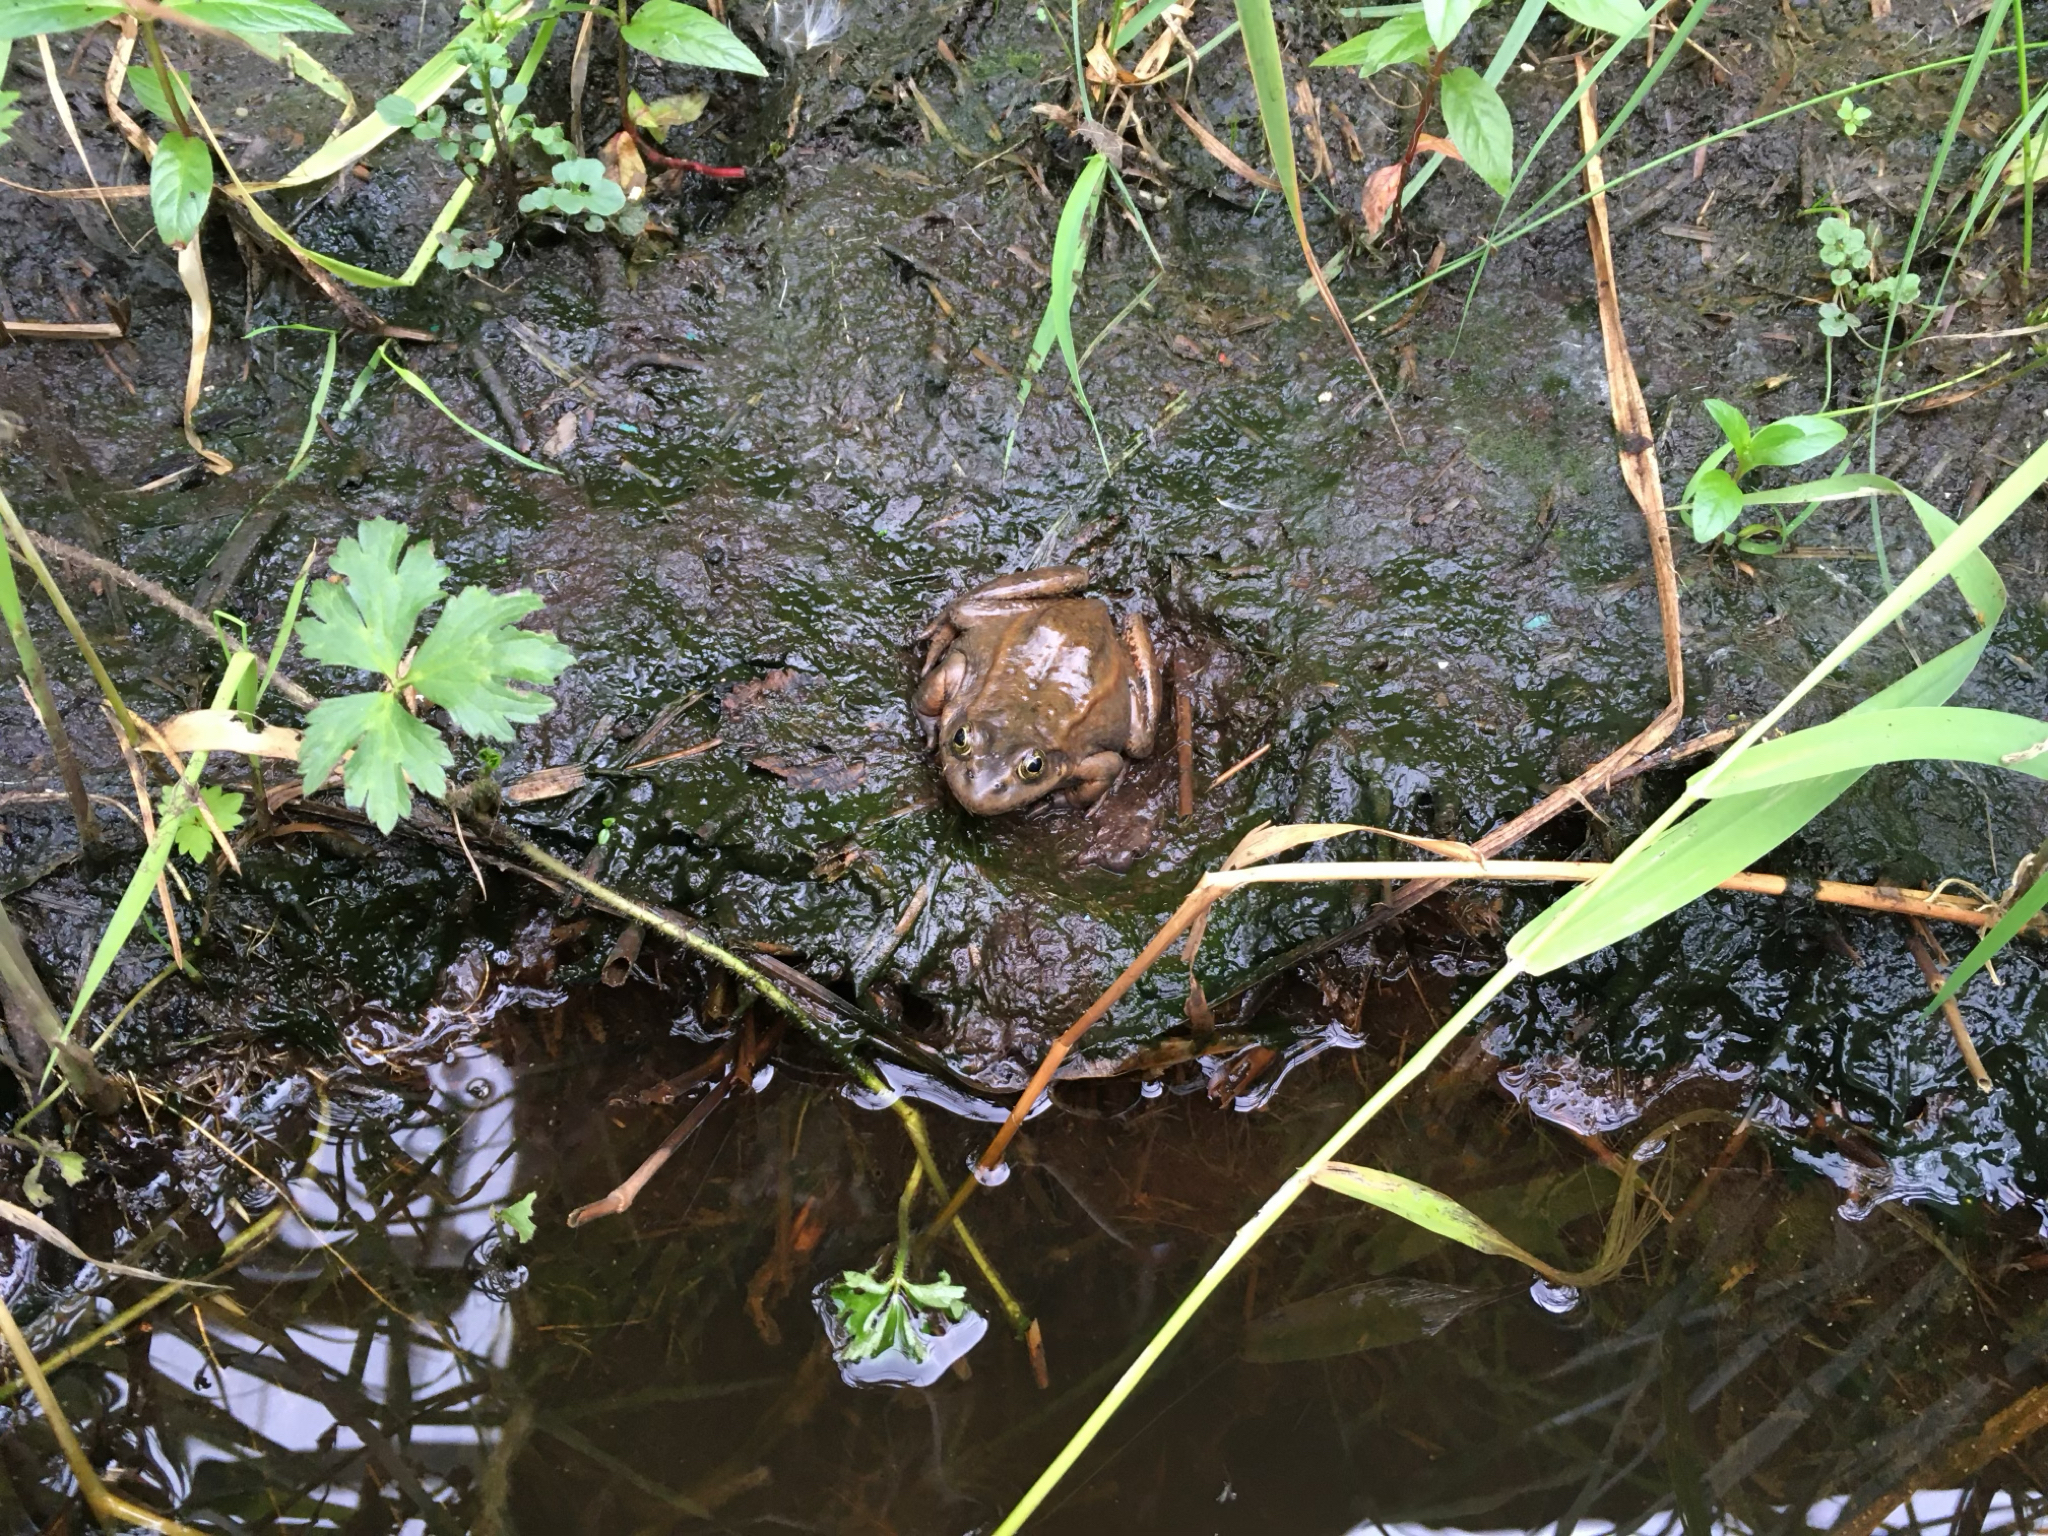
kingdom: Animalia
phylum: Chordata
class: Amphibia
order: Anura
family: Ranidae
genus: Rana
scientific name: Rana luteiventris
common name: Columbia spotted frog
